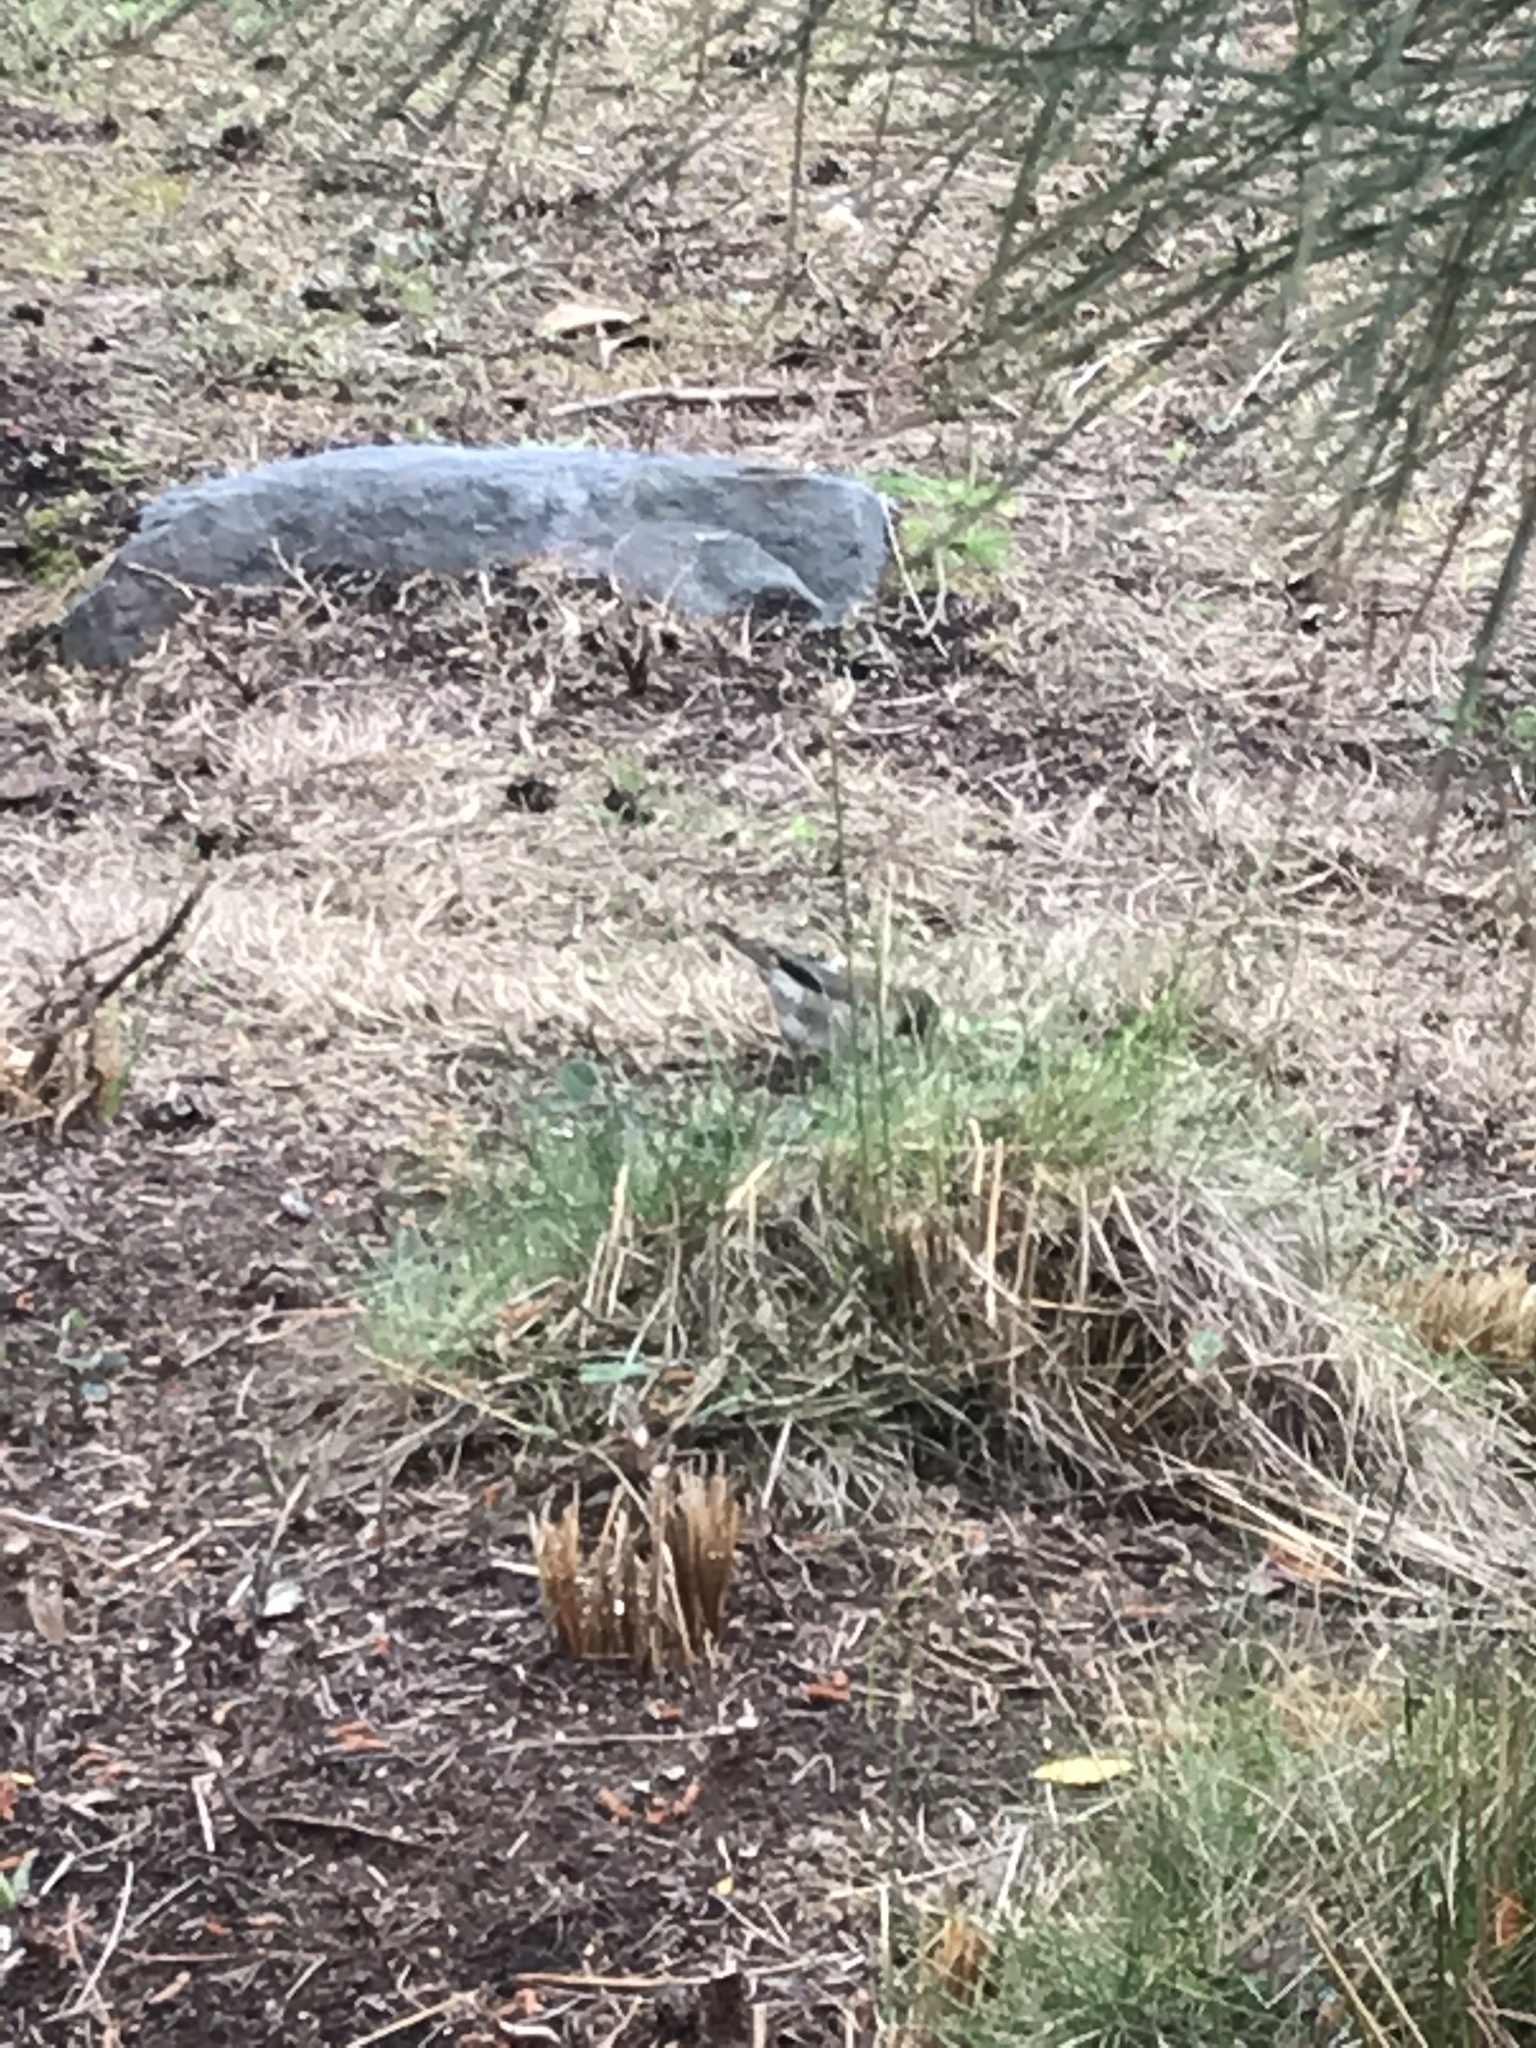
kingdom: Animalia
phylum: Chordata
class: Aves
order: Passeriformes
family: Passerellidae
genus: Junco
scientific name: Junco hyemalis
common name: Dark-eyed junco
